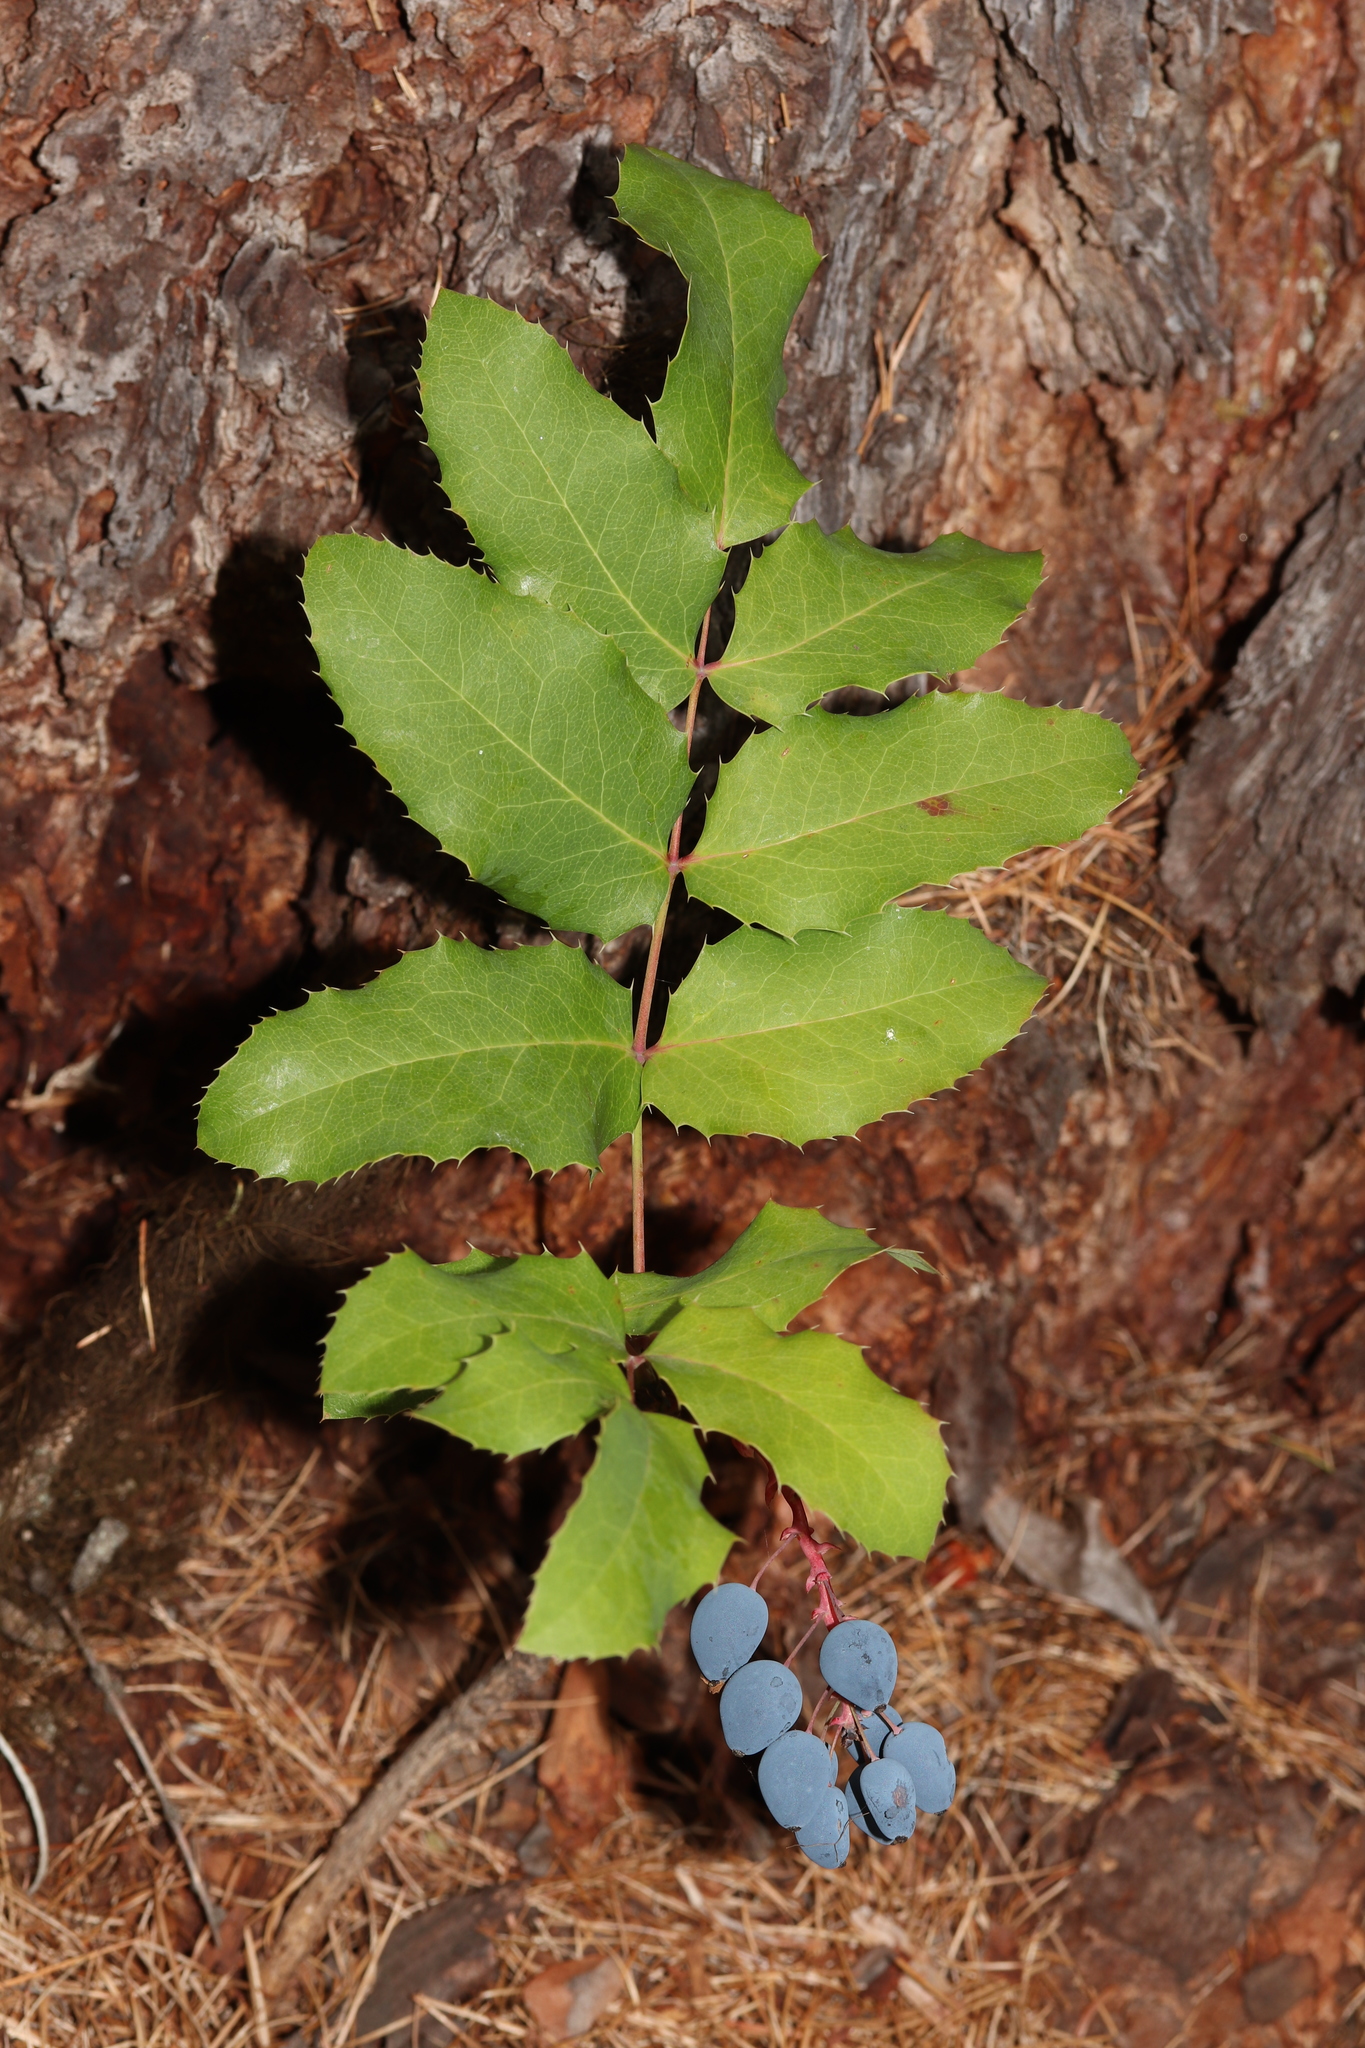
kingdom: Plantae
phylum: Tracheophyta
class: Magnoliopsida
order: Ranunculales
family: Berberidaceae
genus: Mahonia
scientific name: Mahonia repens
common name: Creeping oregon-grape
